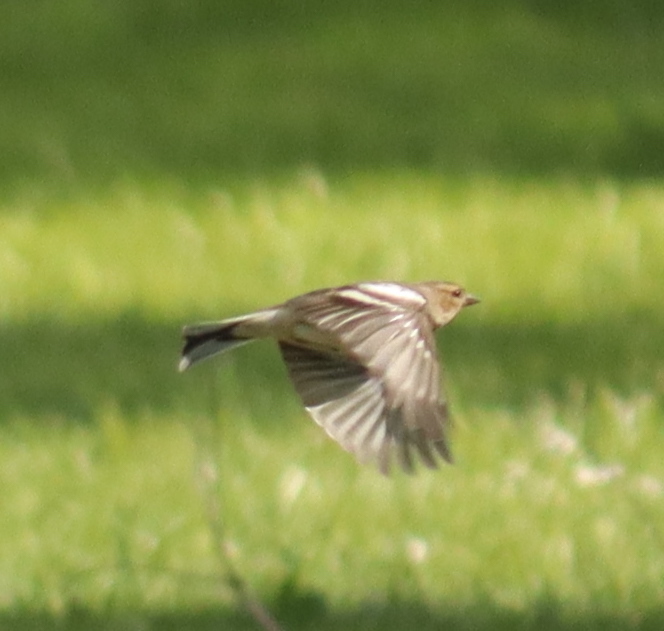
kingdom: Animalia
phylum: Chordata
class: Aves
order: Passeriformes
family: Fringillidae
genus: Fringilla
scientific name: Fringilla coelebs
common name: Common chaffinch
